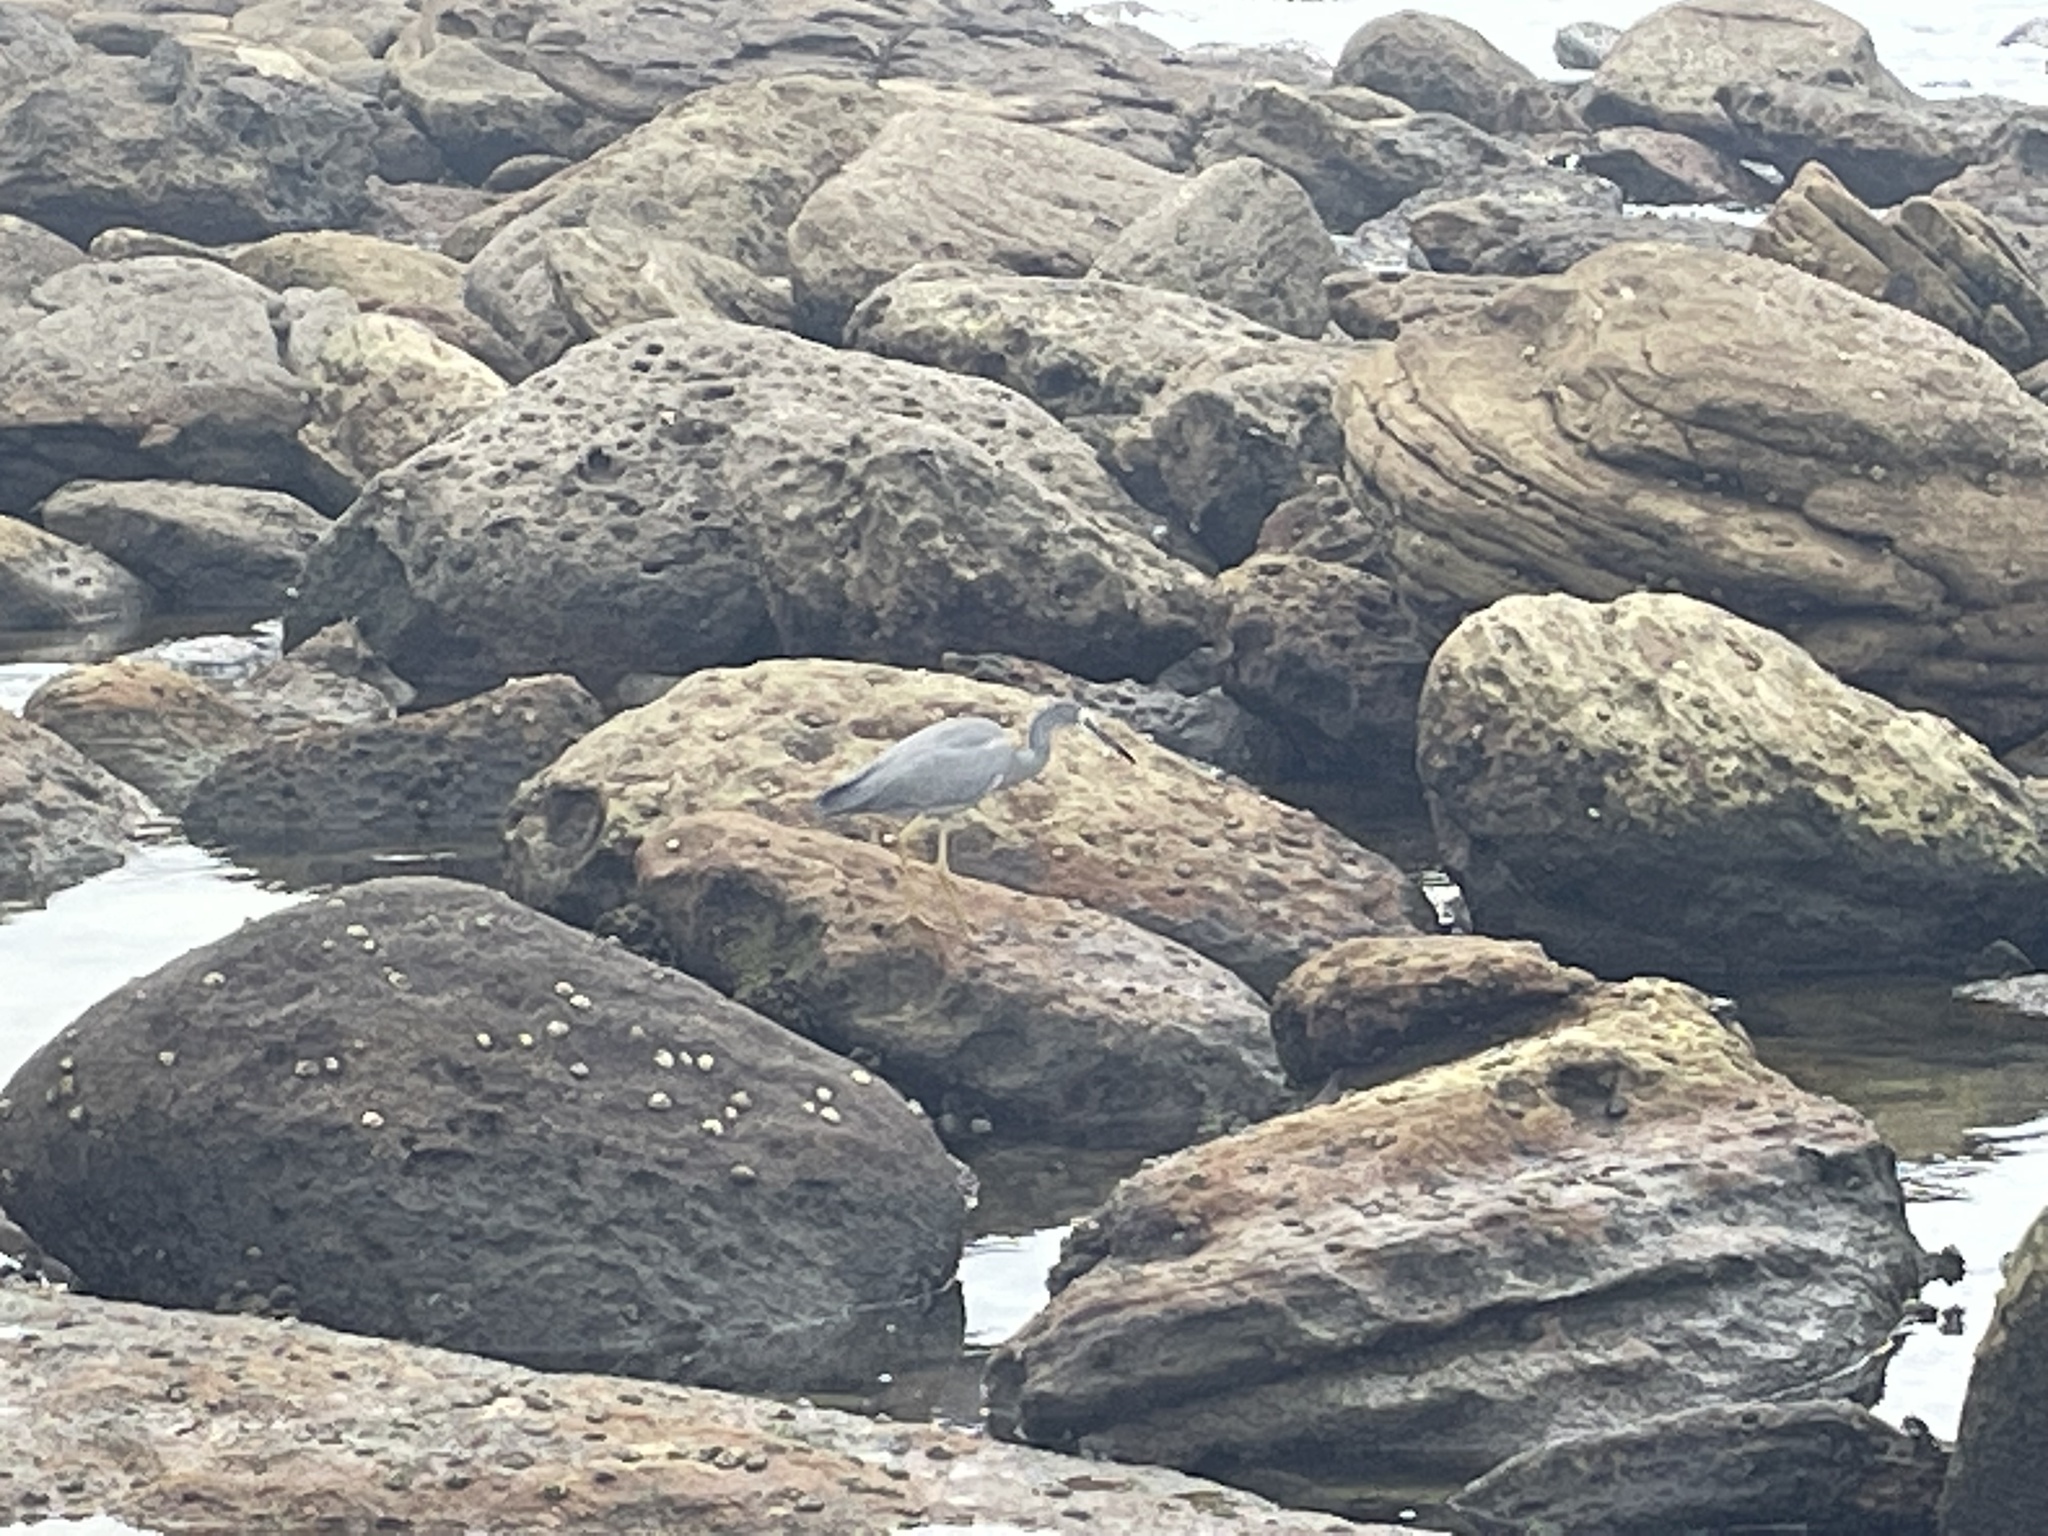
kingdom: Animalia
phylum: Chordata
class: Aves
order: Pelecaniformes
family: Ardeidae
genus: Egretta
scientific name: Egretta novaehollandiae
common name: White-faced heron
